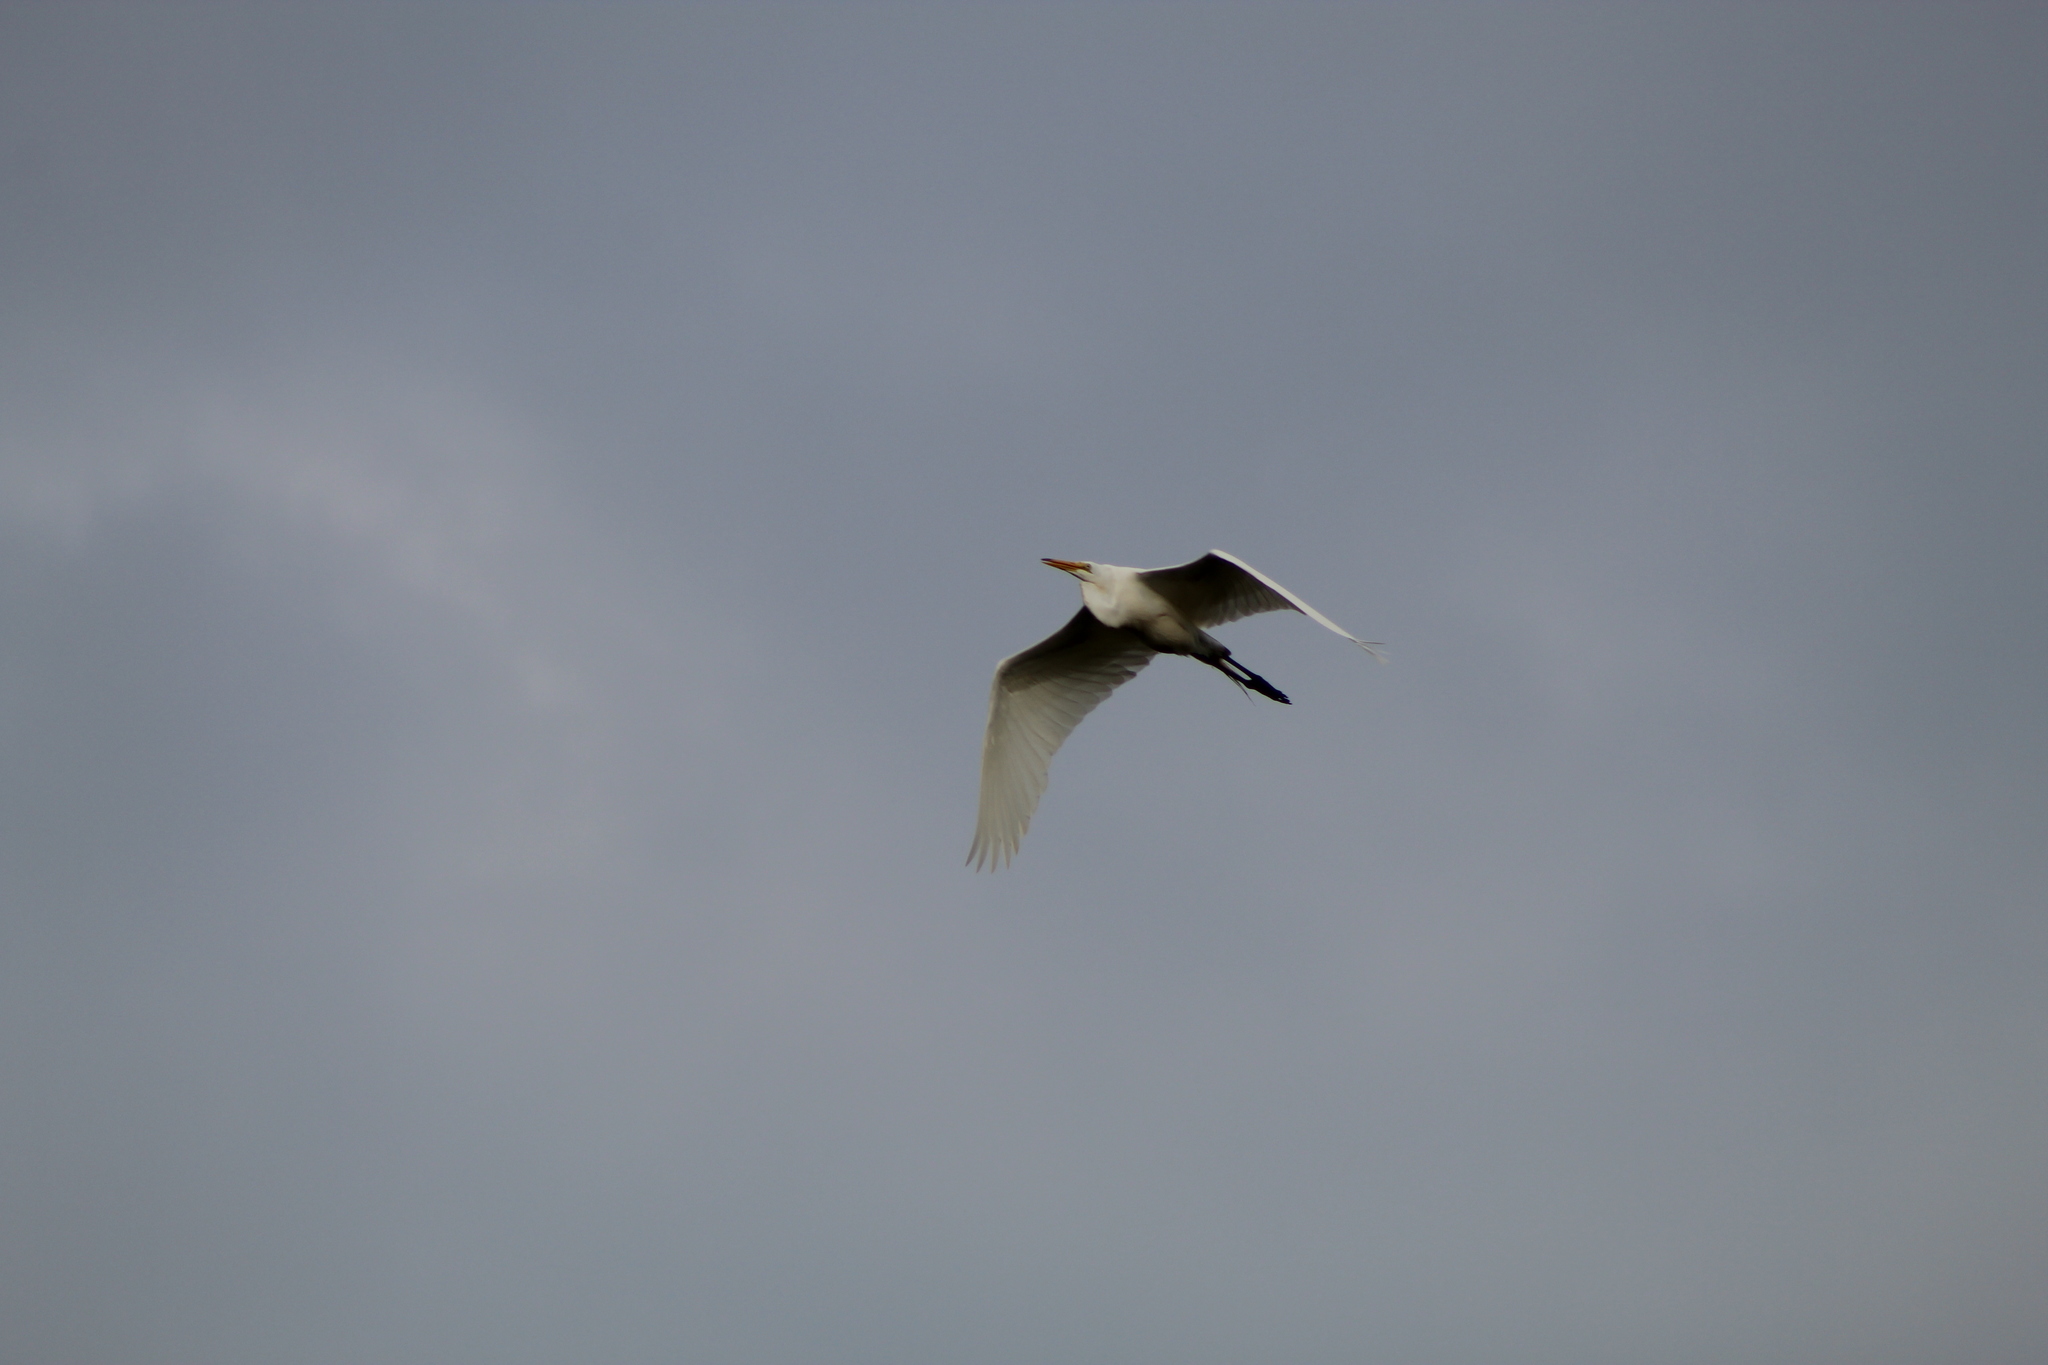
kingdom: Animalia
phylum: Chordata
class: Aves
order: Pelecaniformes
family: Ardeidae
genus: Ardea
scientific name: Ardea alba
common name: Great egret
